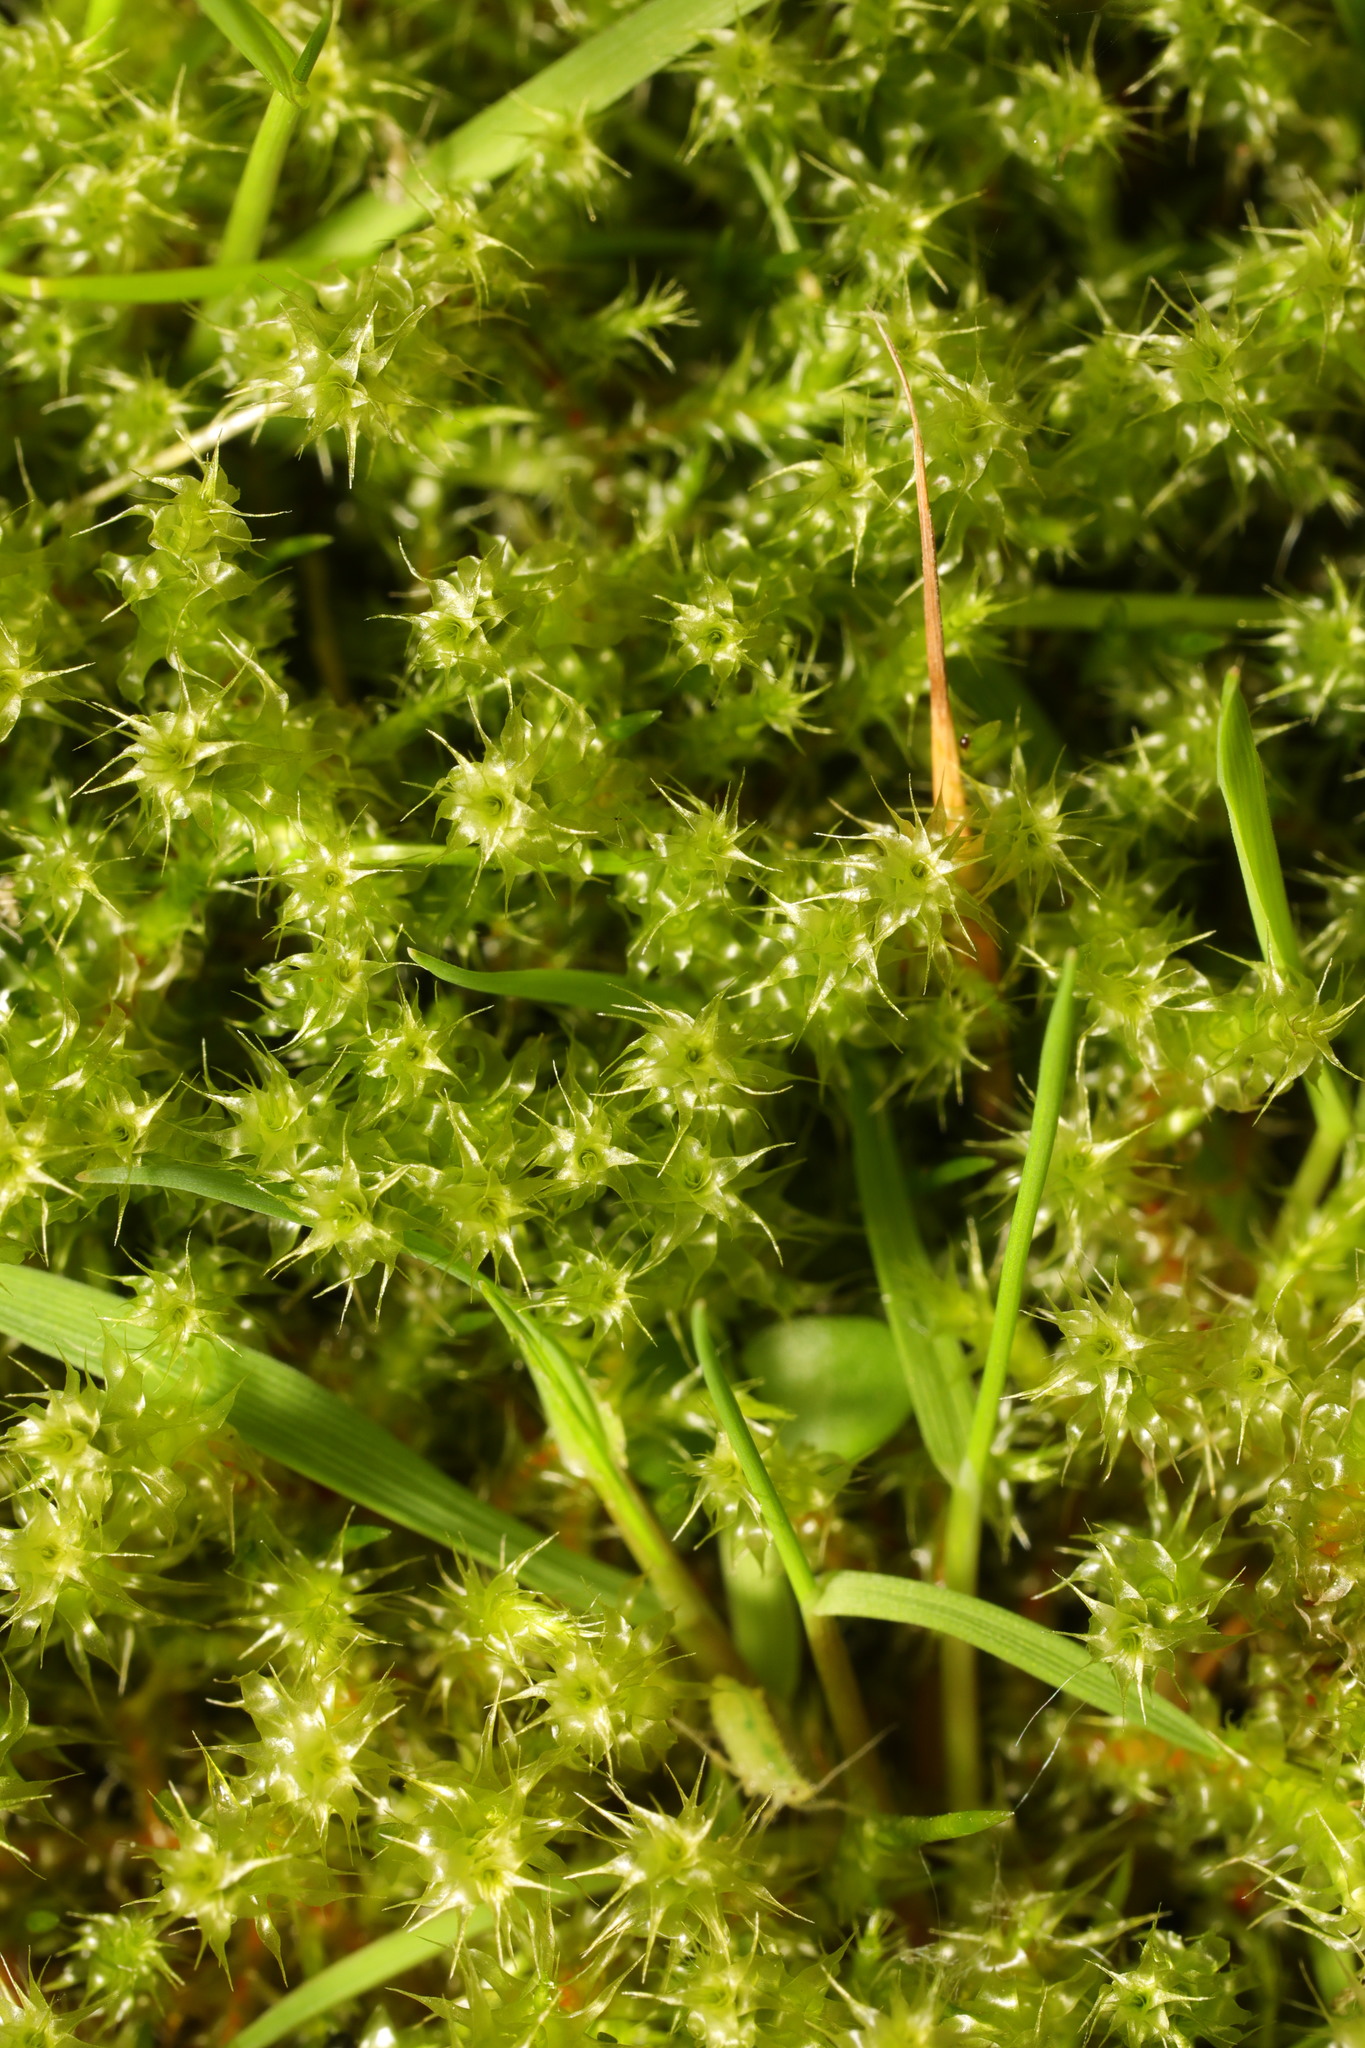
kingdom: Plantae
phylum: Bryophyta
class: Bryopsida
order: Hypnales
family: Hylocomiaceae
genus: Rhytidiadelphus
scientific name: Rhytidiadelphus squarrosus
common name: Springy turf-moss
